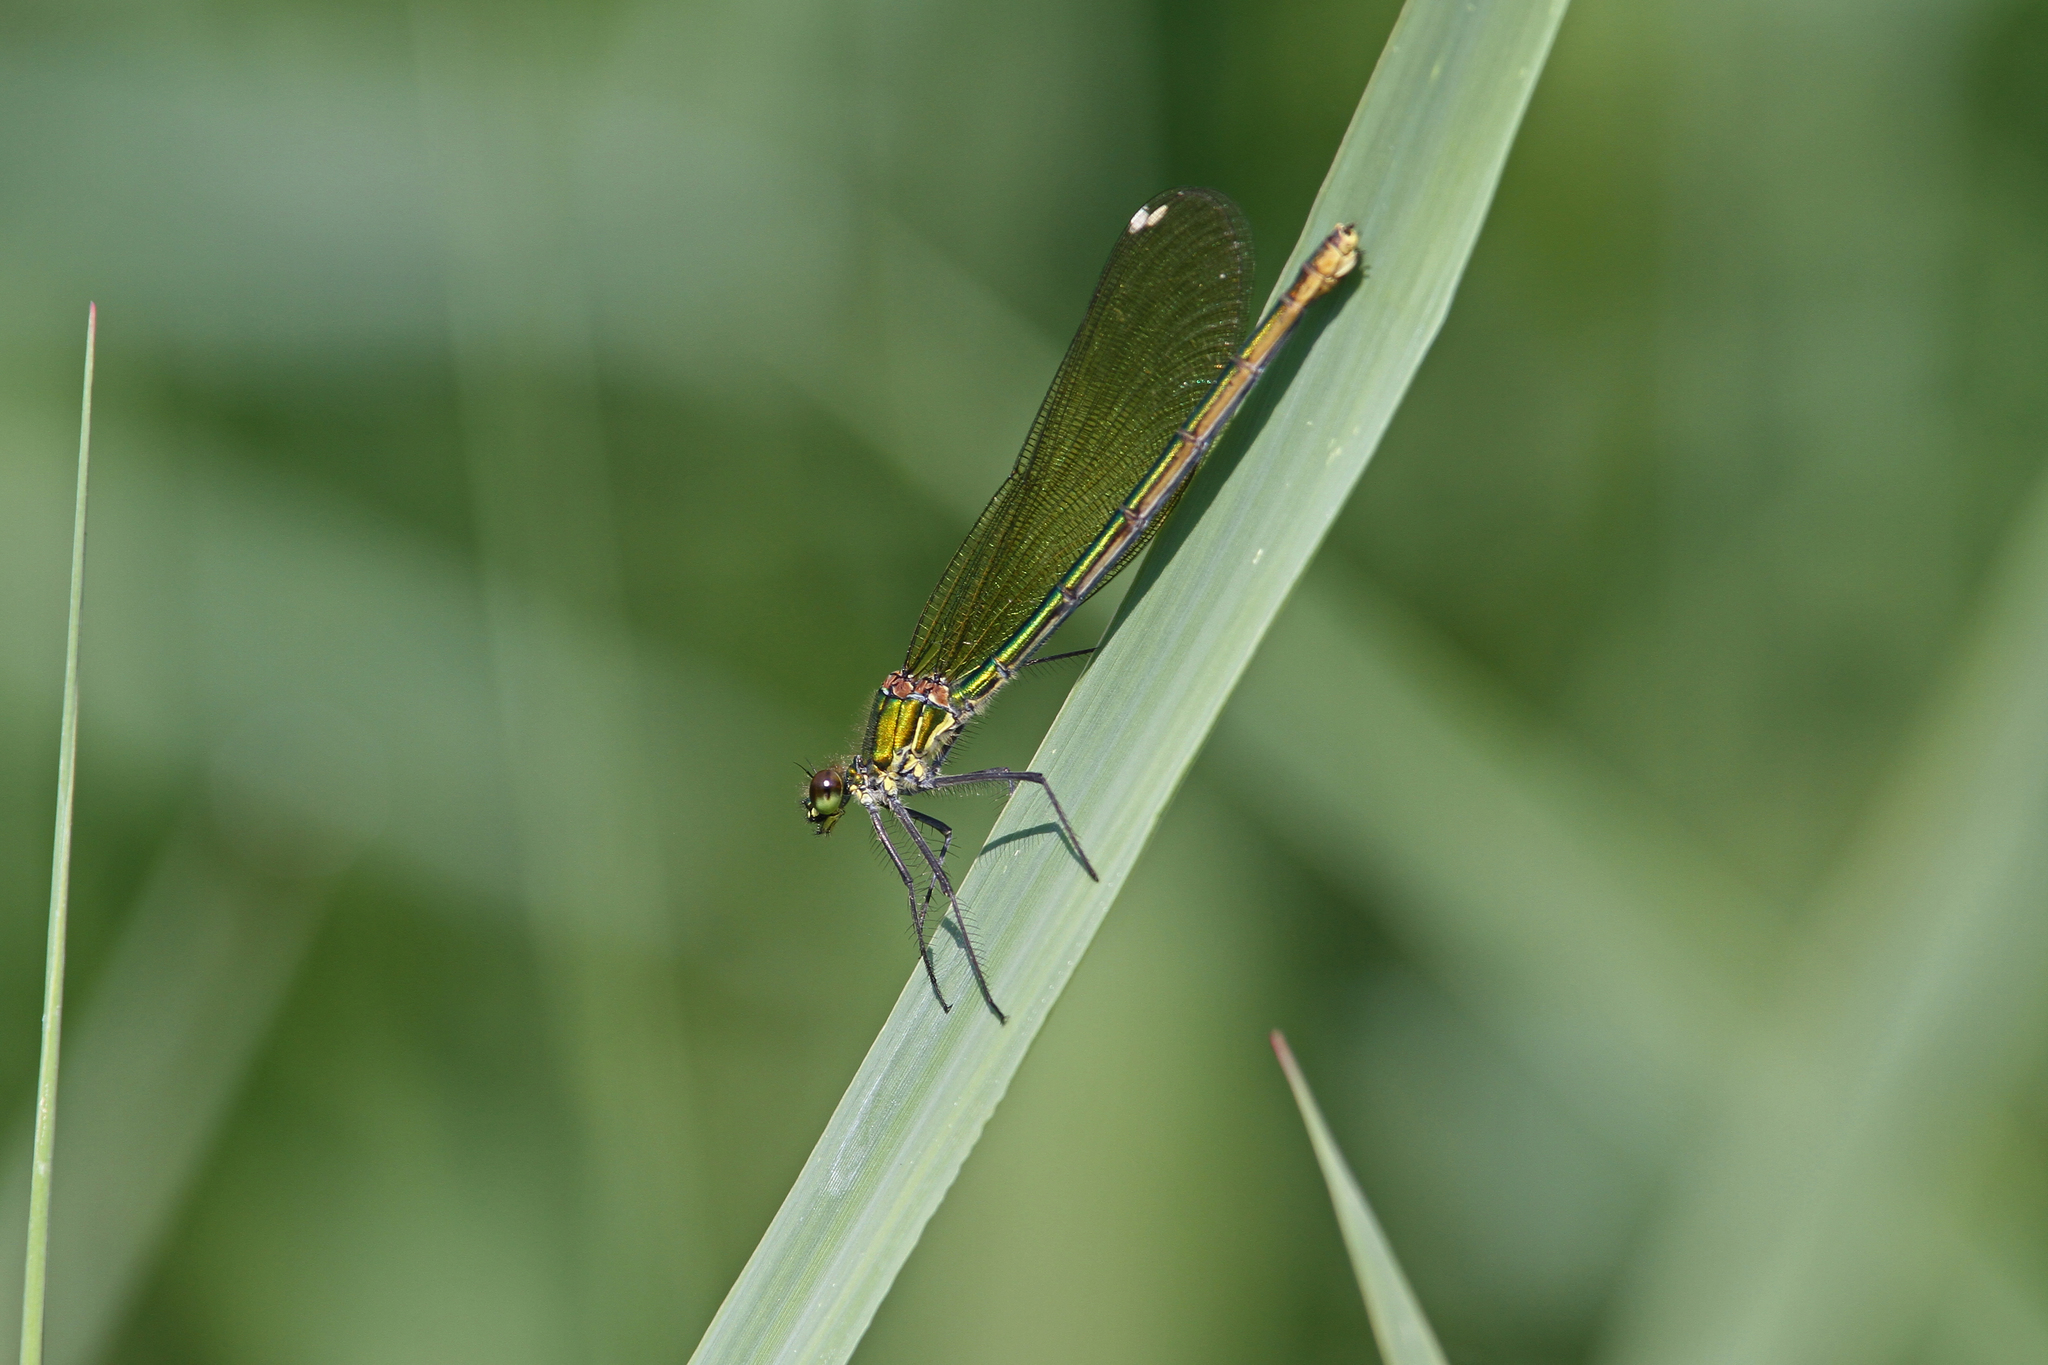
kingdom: Animalia
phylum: Arthropoda
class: Insecta
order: Odonata
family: Calopterygidae
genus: Calopteryx
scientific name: Calopteryx splendens
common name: Banded demoiselle
